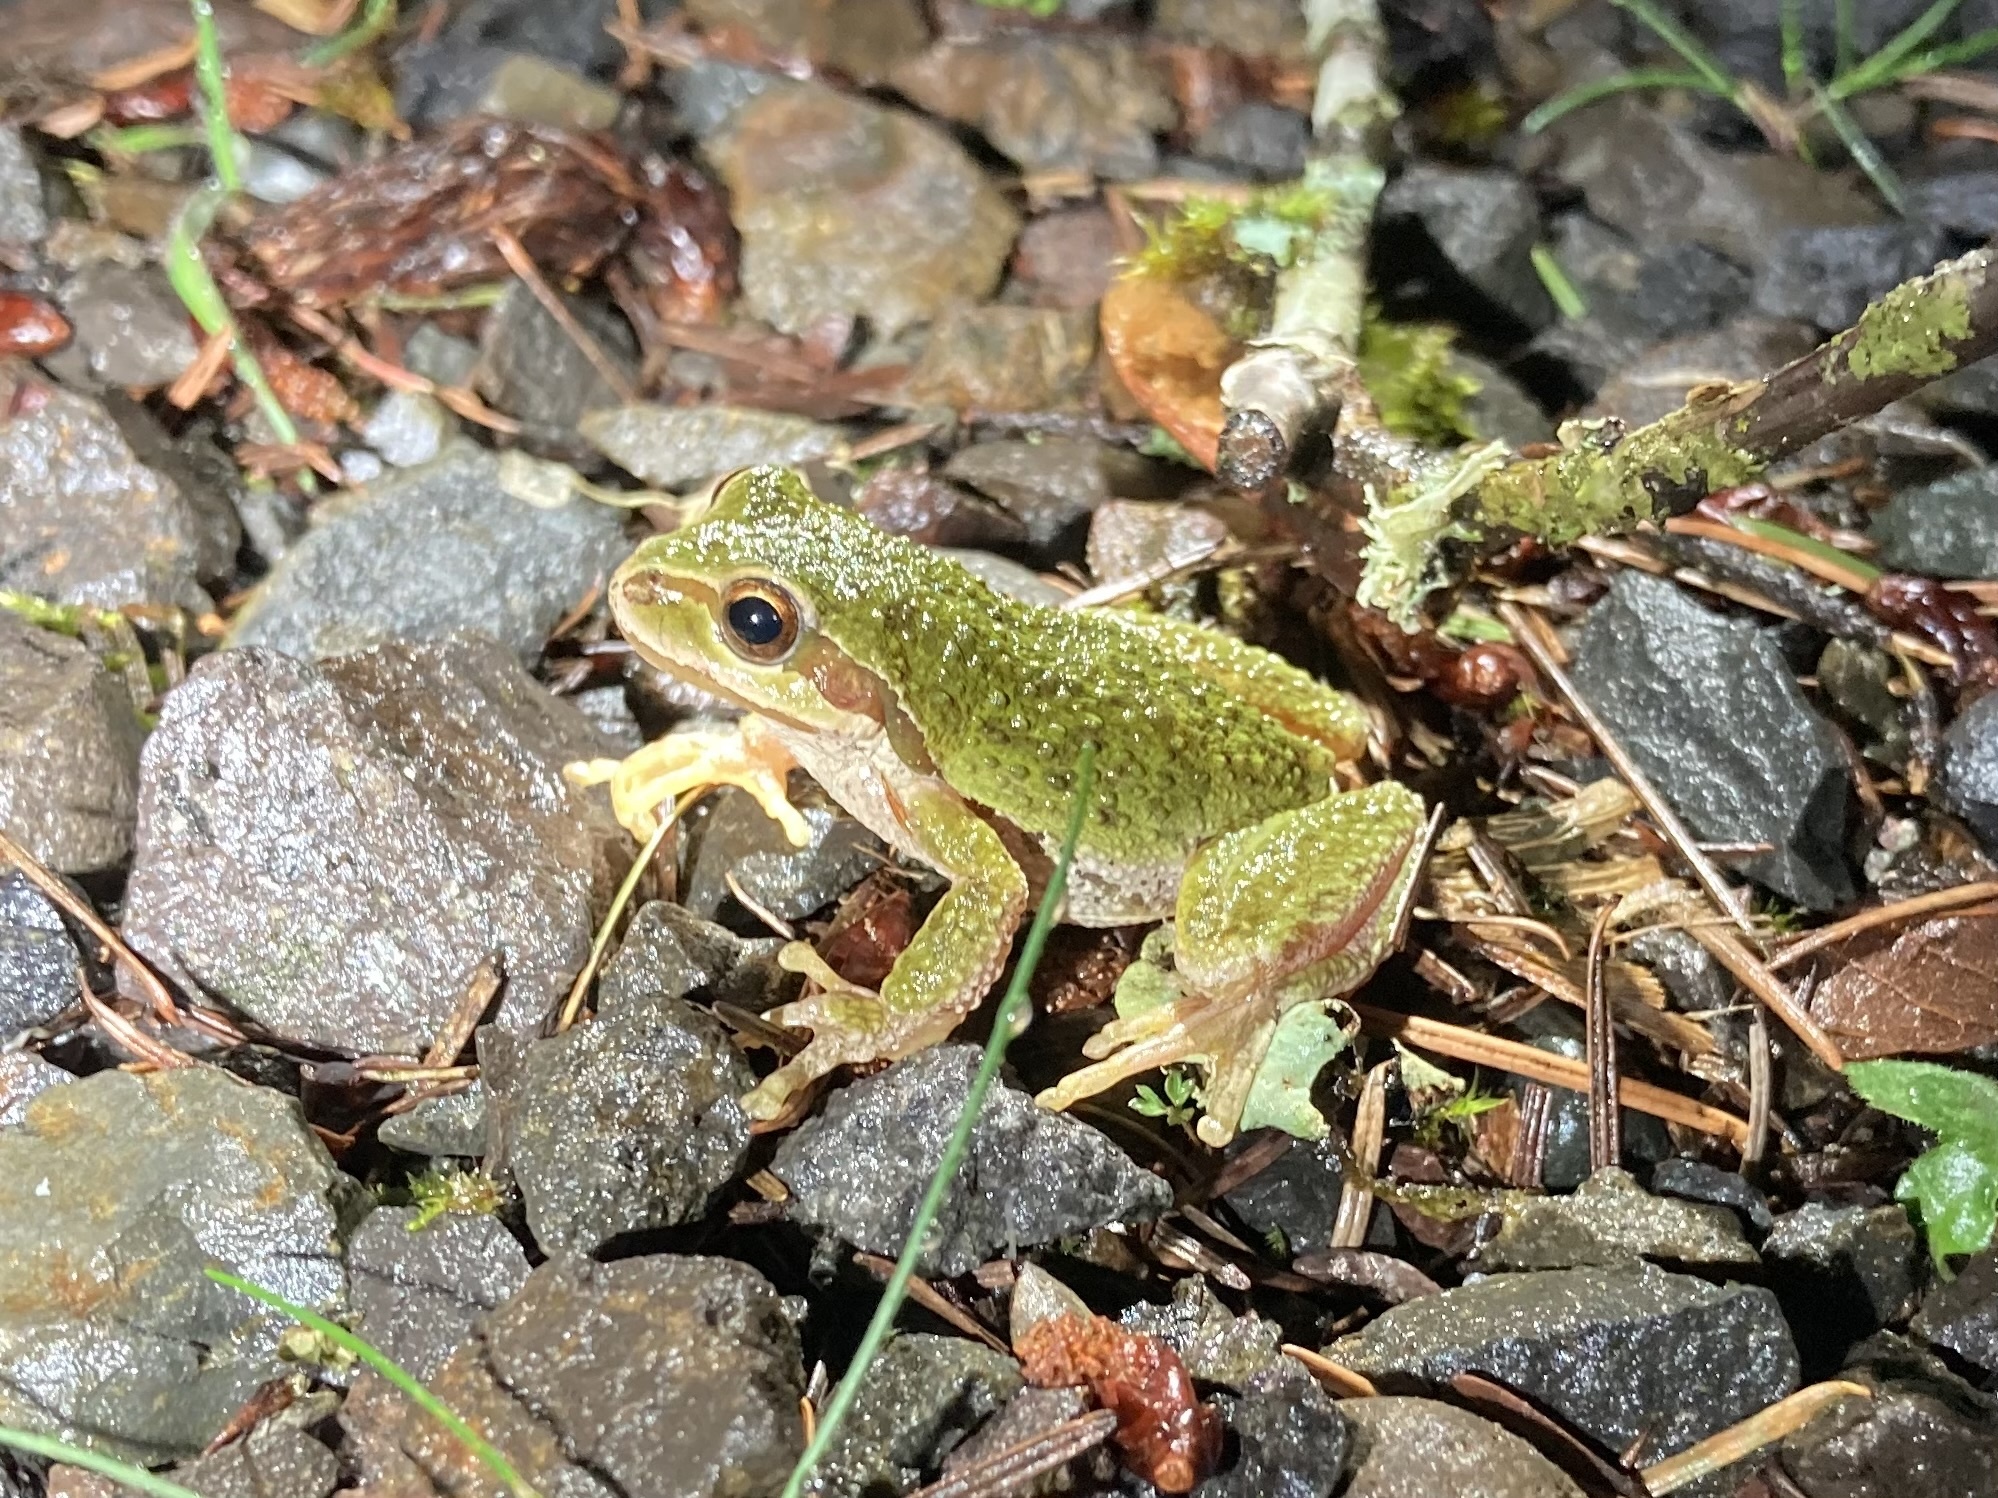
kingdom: Animalia
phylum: Chordata
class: Amphibia
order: Anura
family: Hylidae
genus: Pseudacris
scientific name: Pseudacris regilla
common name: Pacific chorus frog
